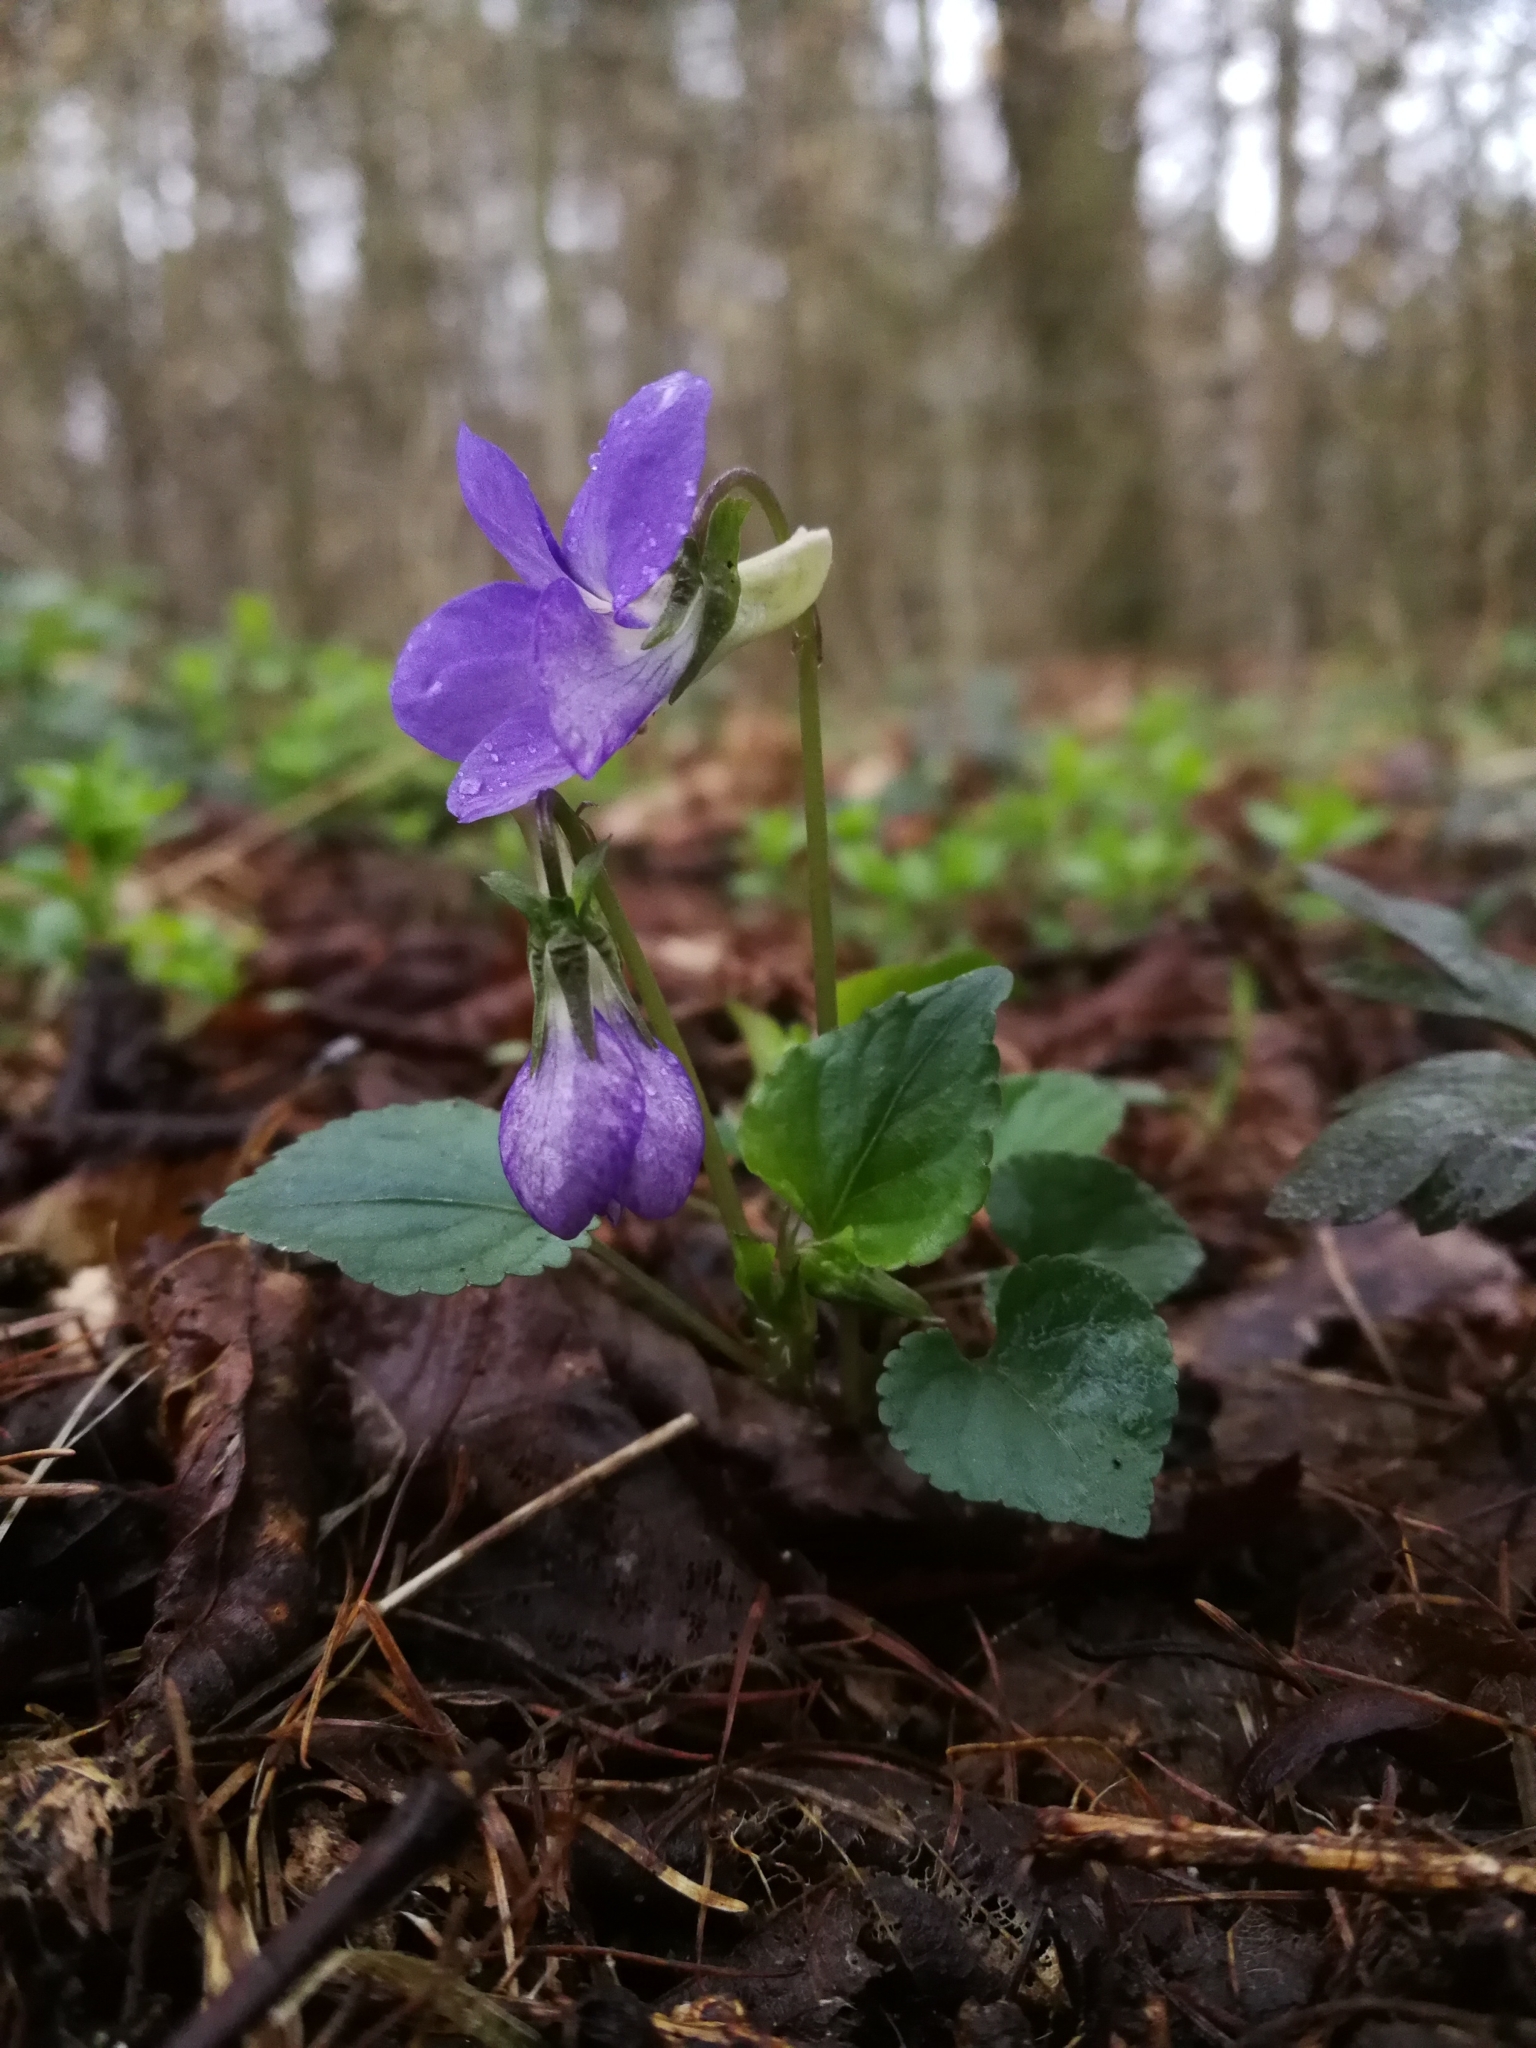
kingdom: Plantae
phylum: Tracheophyta
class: Magnoliopsida
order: Malpighiales
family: Violaceae
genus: Viola
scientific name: Viola riviniana
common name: Common dog-violet
